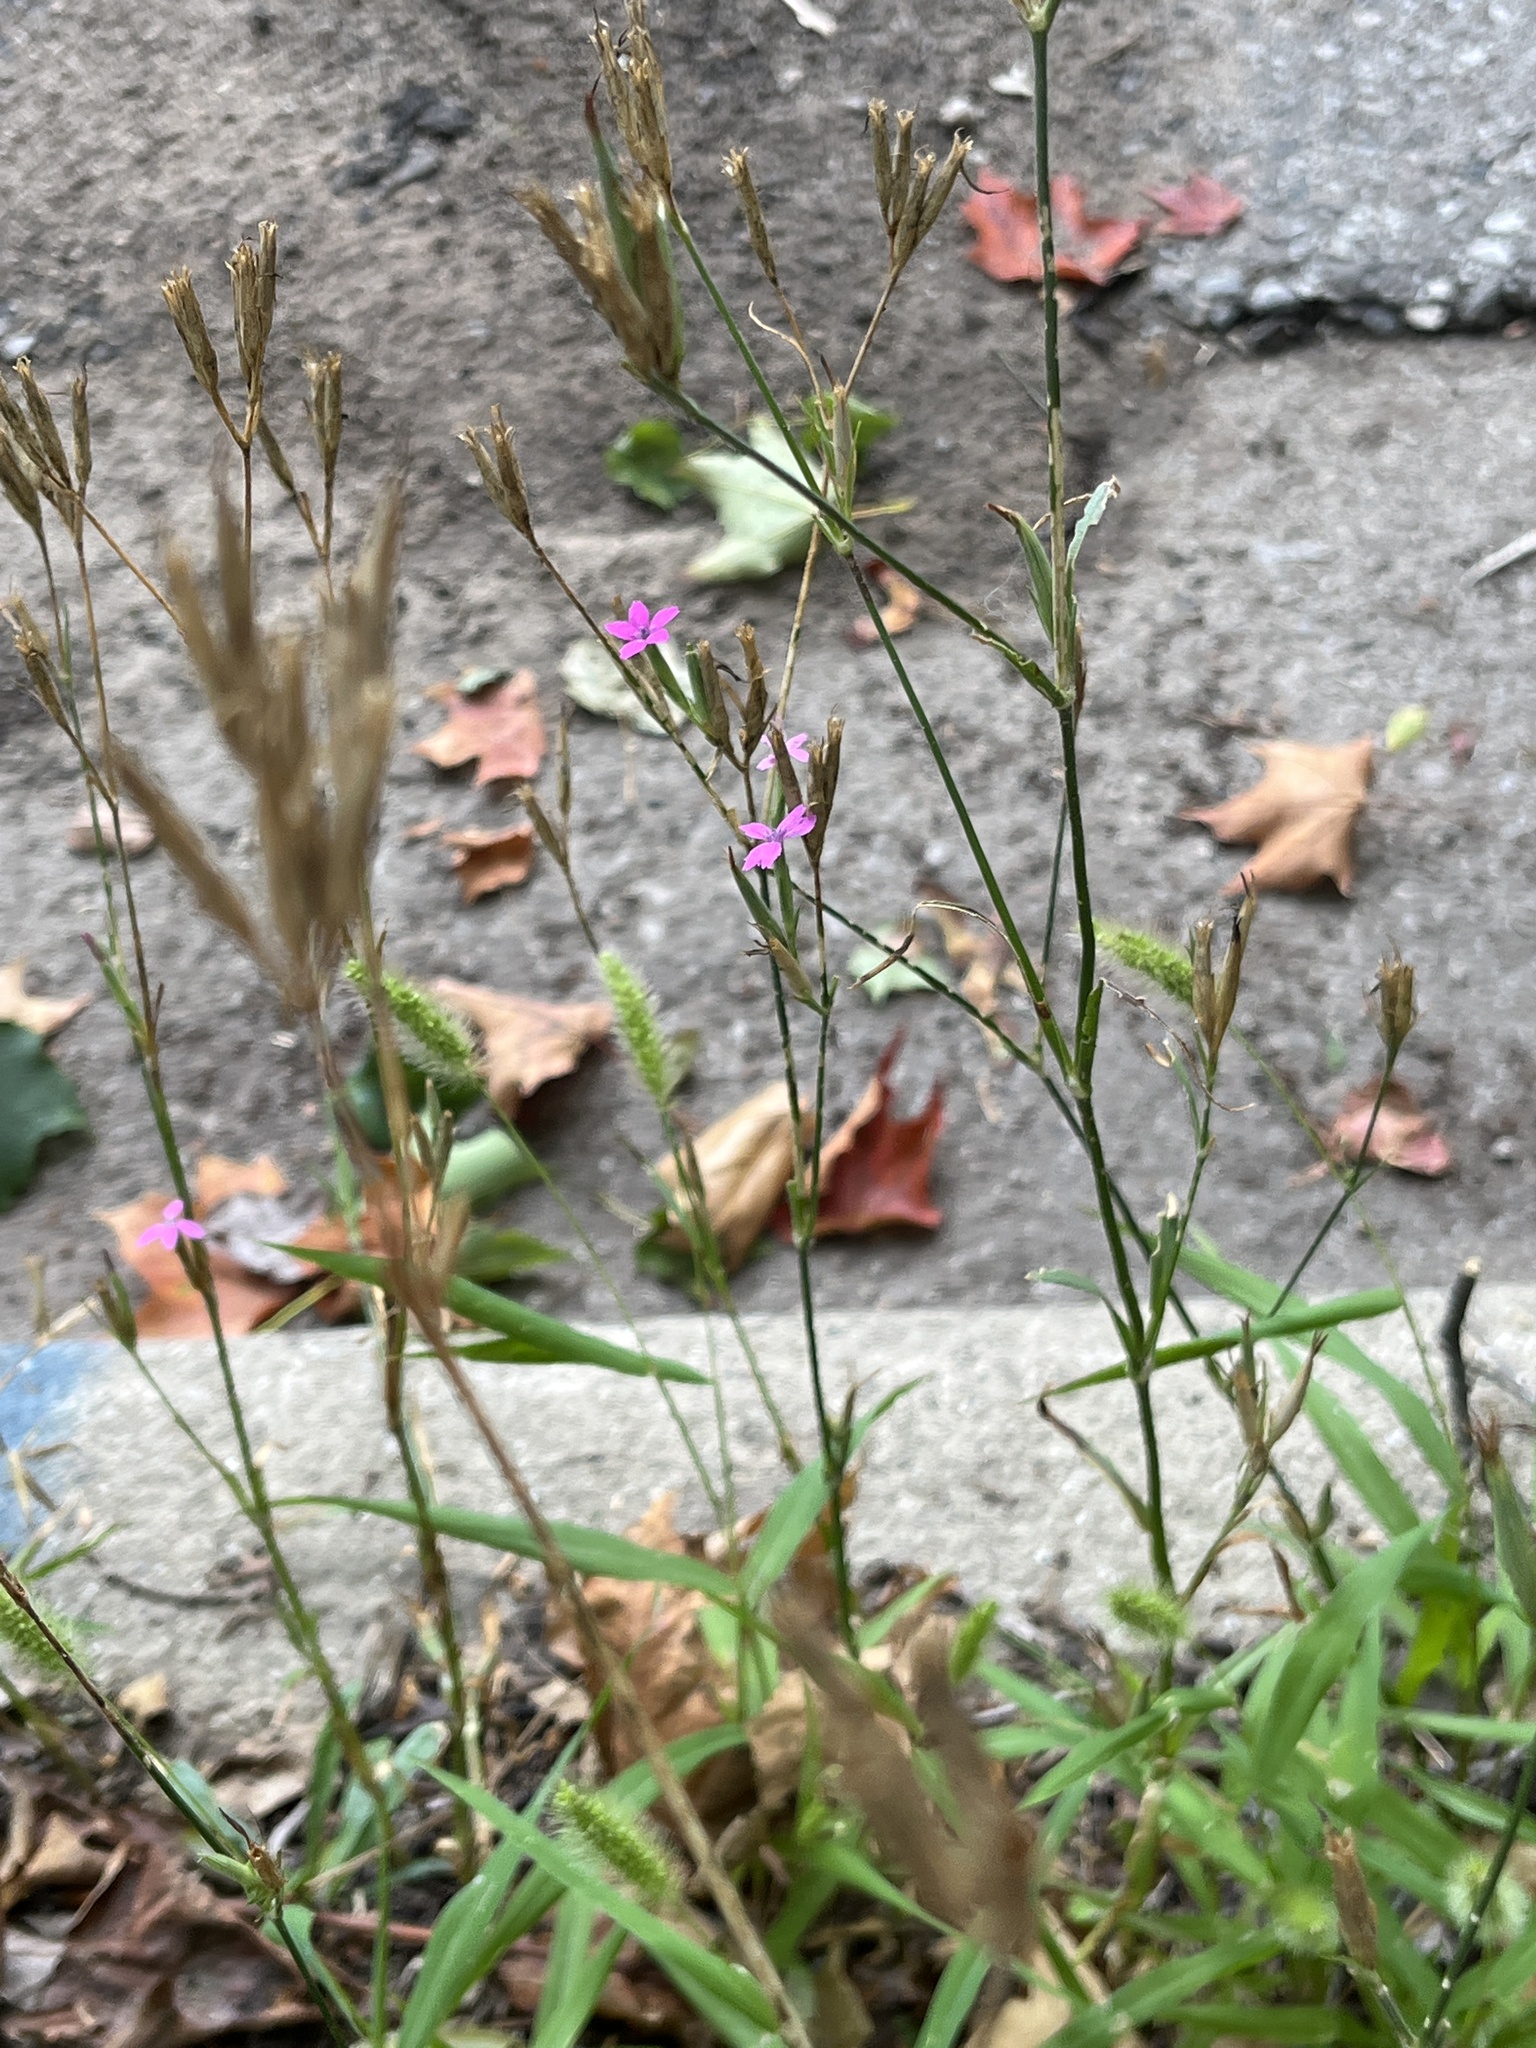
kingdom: Plantae
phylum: Tracheophyta
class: Magnoliopsida
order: Caryophyllales
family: Caryophyllaceae
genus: Dianthus
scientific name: Dianthus armeria
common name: Deptford pink
